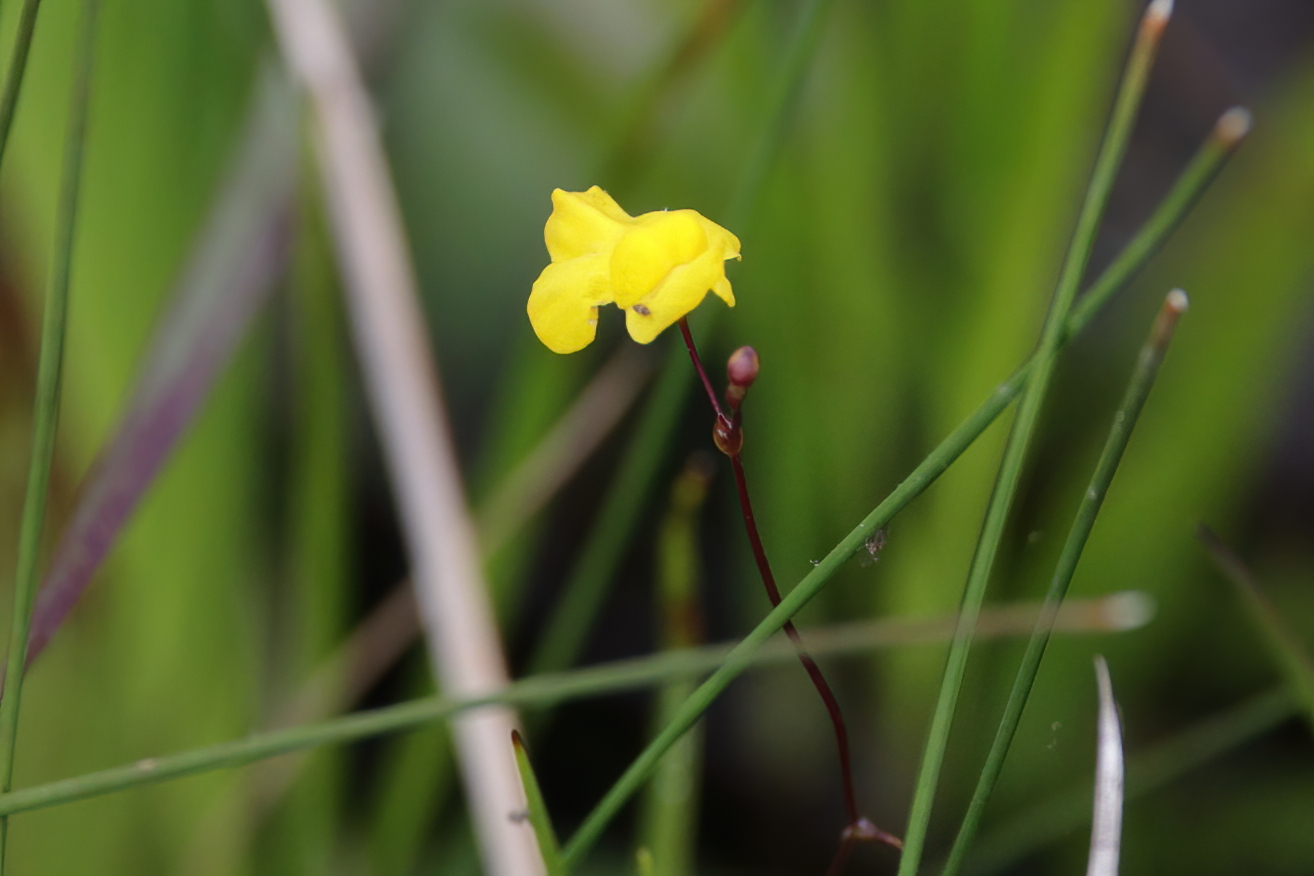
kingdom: Plantae
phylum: Tracheophyta
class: Magnoliopsida
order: Lamiales
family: Lentibulariaceae
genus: Utricularia
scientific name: Utricularia subulata
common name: Tiny bladderwort
